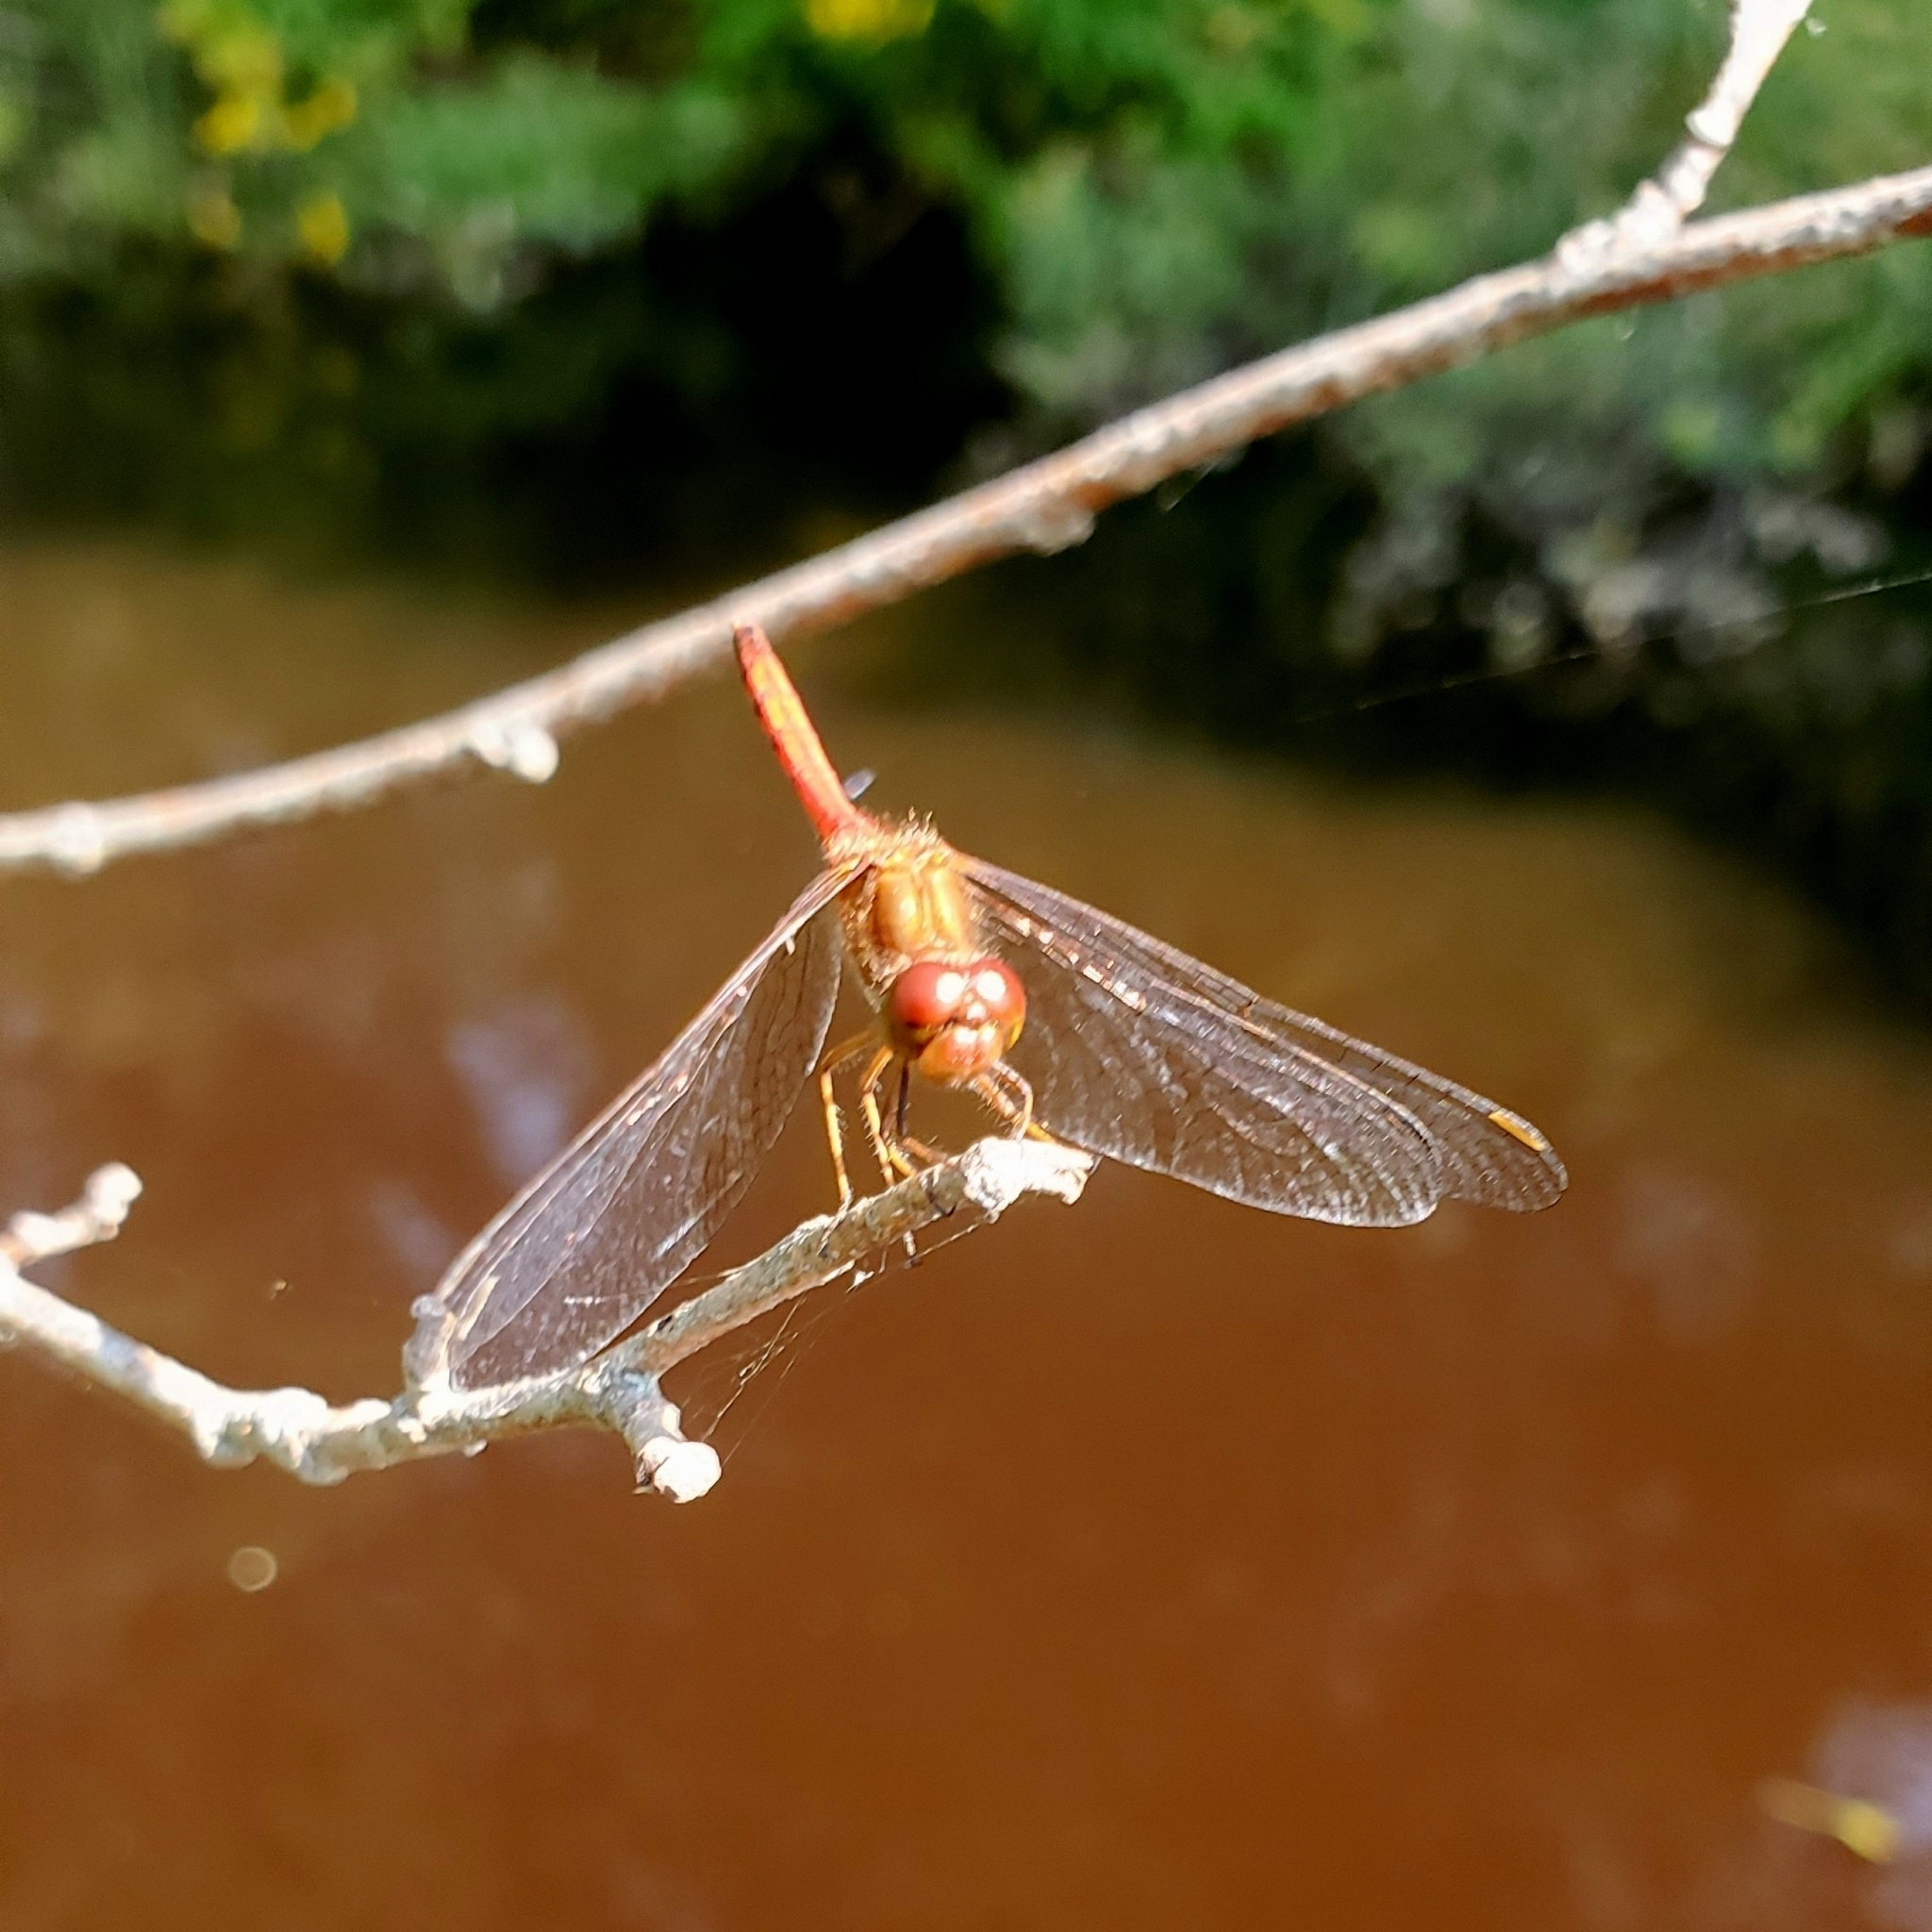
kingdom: Animalia
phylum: Arthropoda
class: Insecta
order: Odonata
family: Libellulidae
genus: Sympetrum
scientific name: Sympetrum vicinum
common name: Autumn meadowhawk
